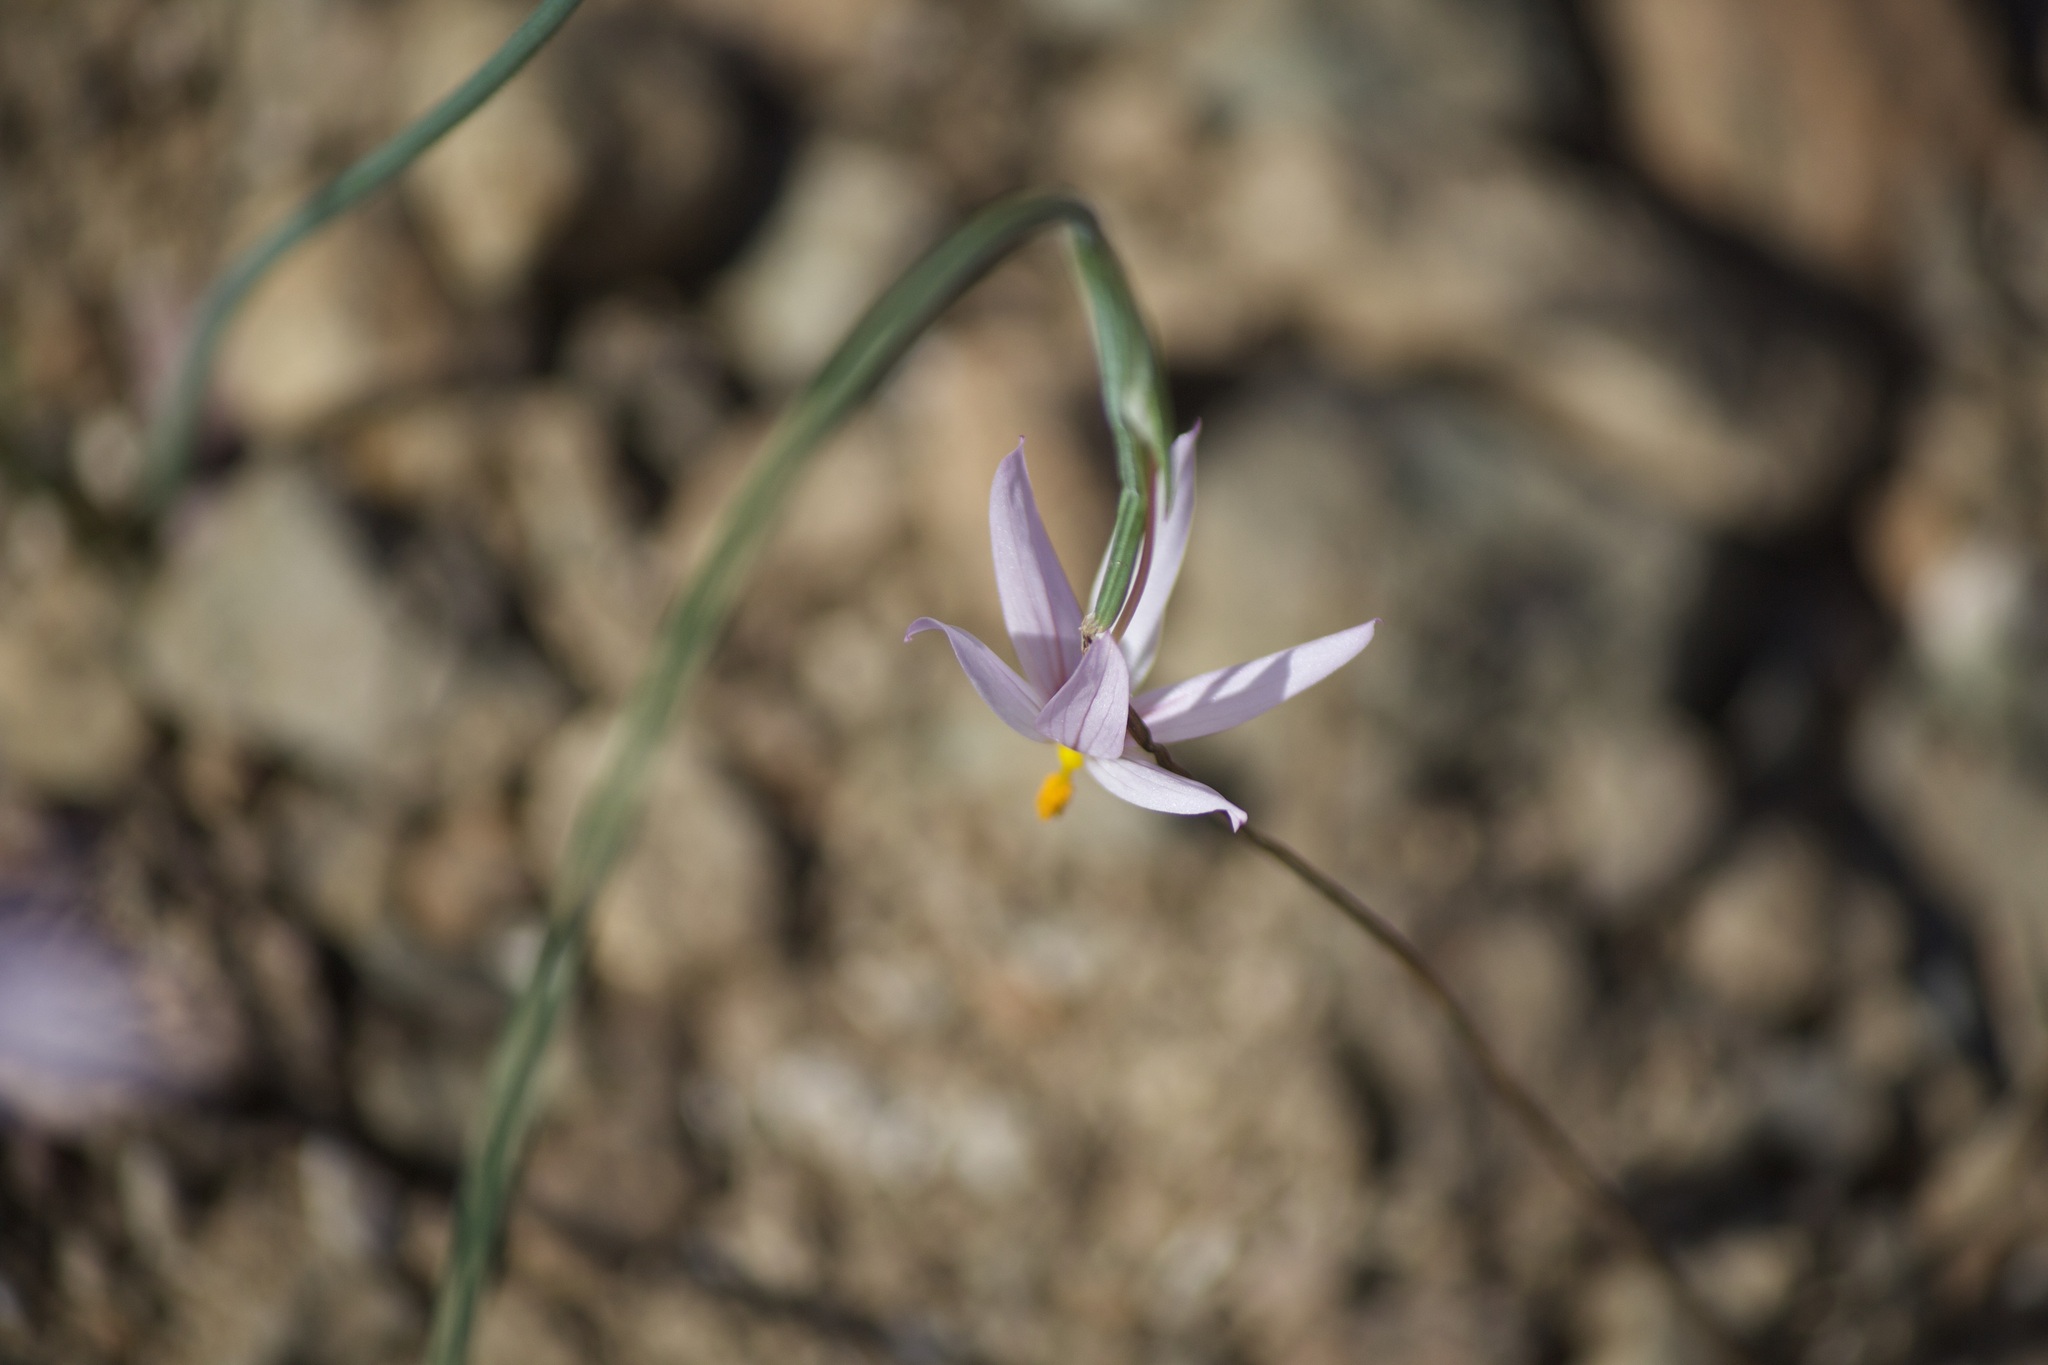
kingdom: Plantae
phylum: Tracheophyta
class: Liliopsida
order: Asparagales
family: Iridaceae
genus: Olsynium
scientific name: Olsynium scirpoideum
